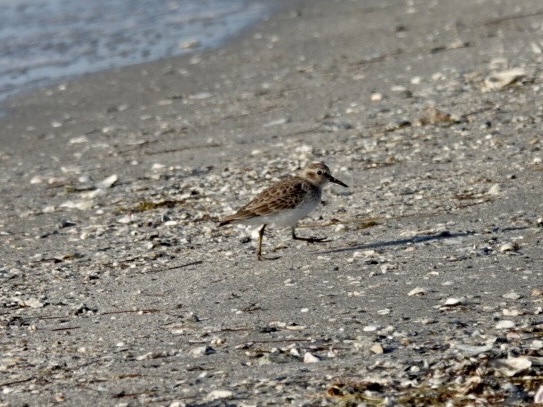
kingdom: Animalia
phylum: Chordata
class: Aves
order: Charadriiformes
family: Scolopacidae
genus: Calidris
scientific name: Calidris minutilla
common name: Least sandpiper
